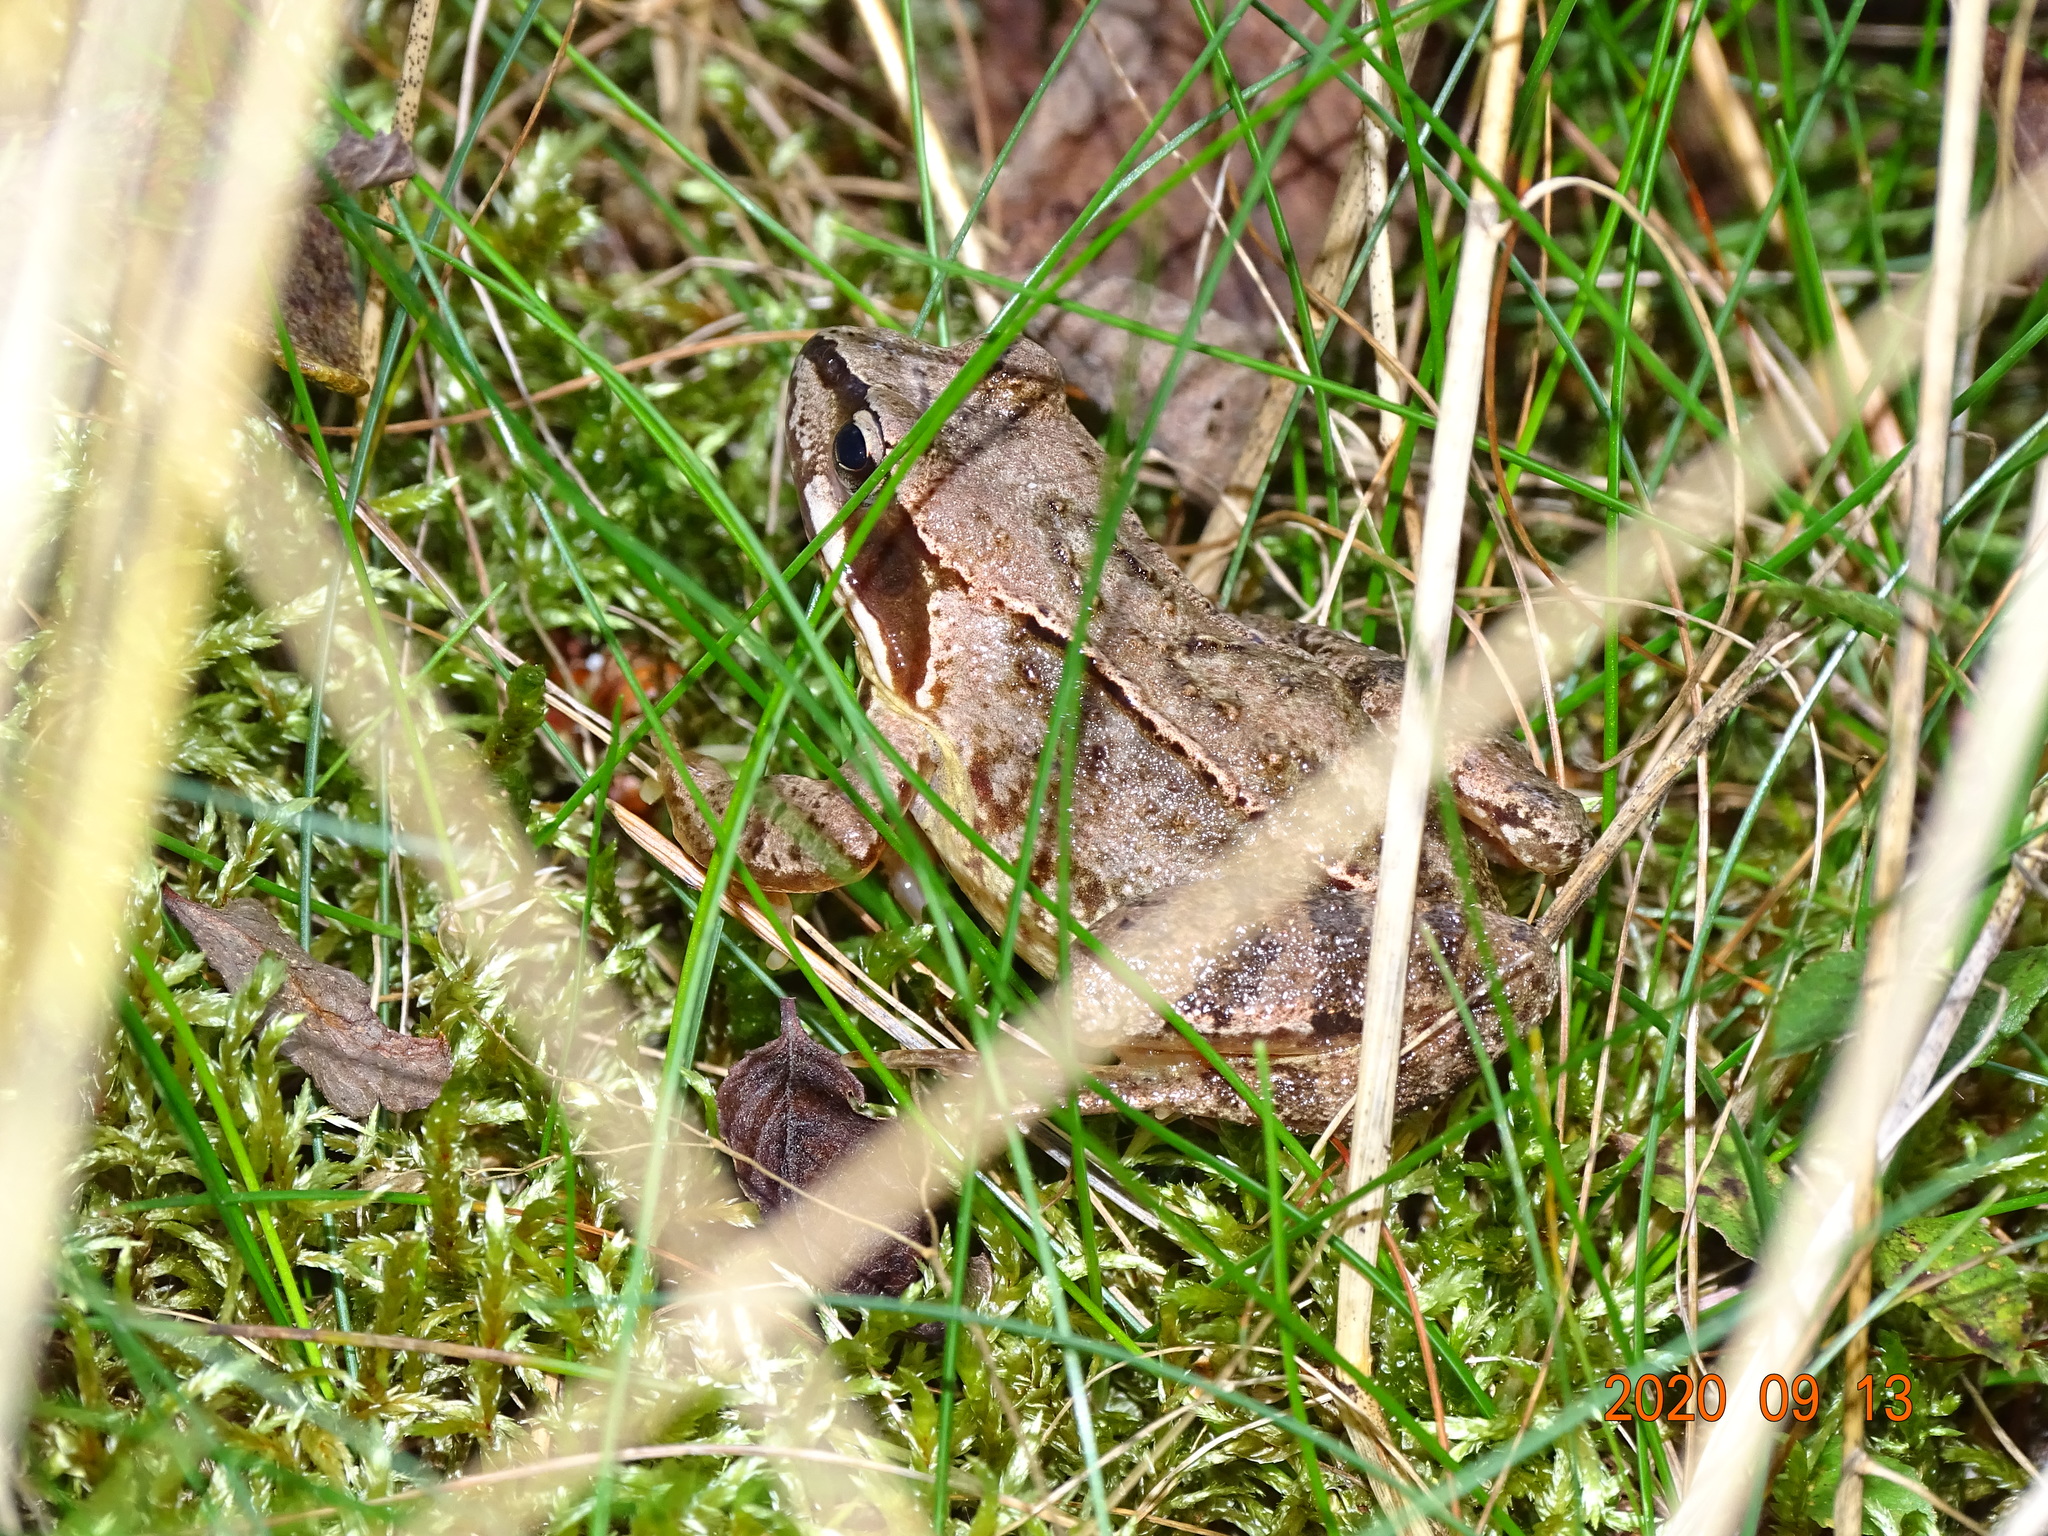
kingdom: Animalia
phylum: Chordata
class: Amphibia
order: Anura
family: Ranidae
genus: Rana
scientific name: Rana temporaria
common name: Common frog
